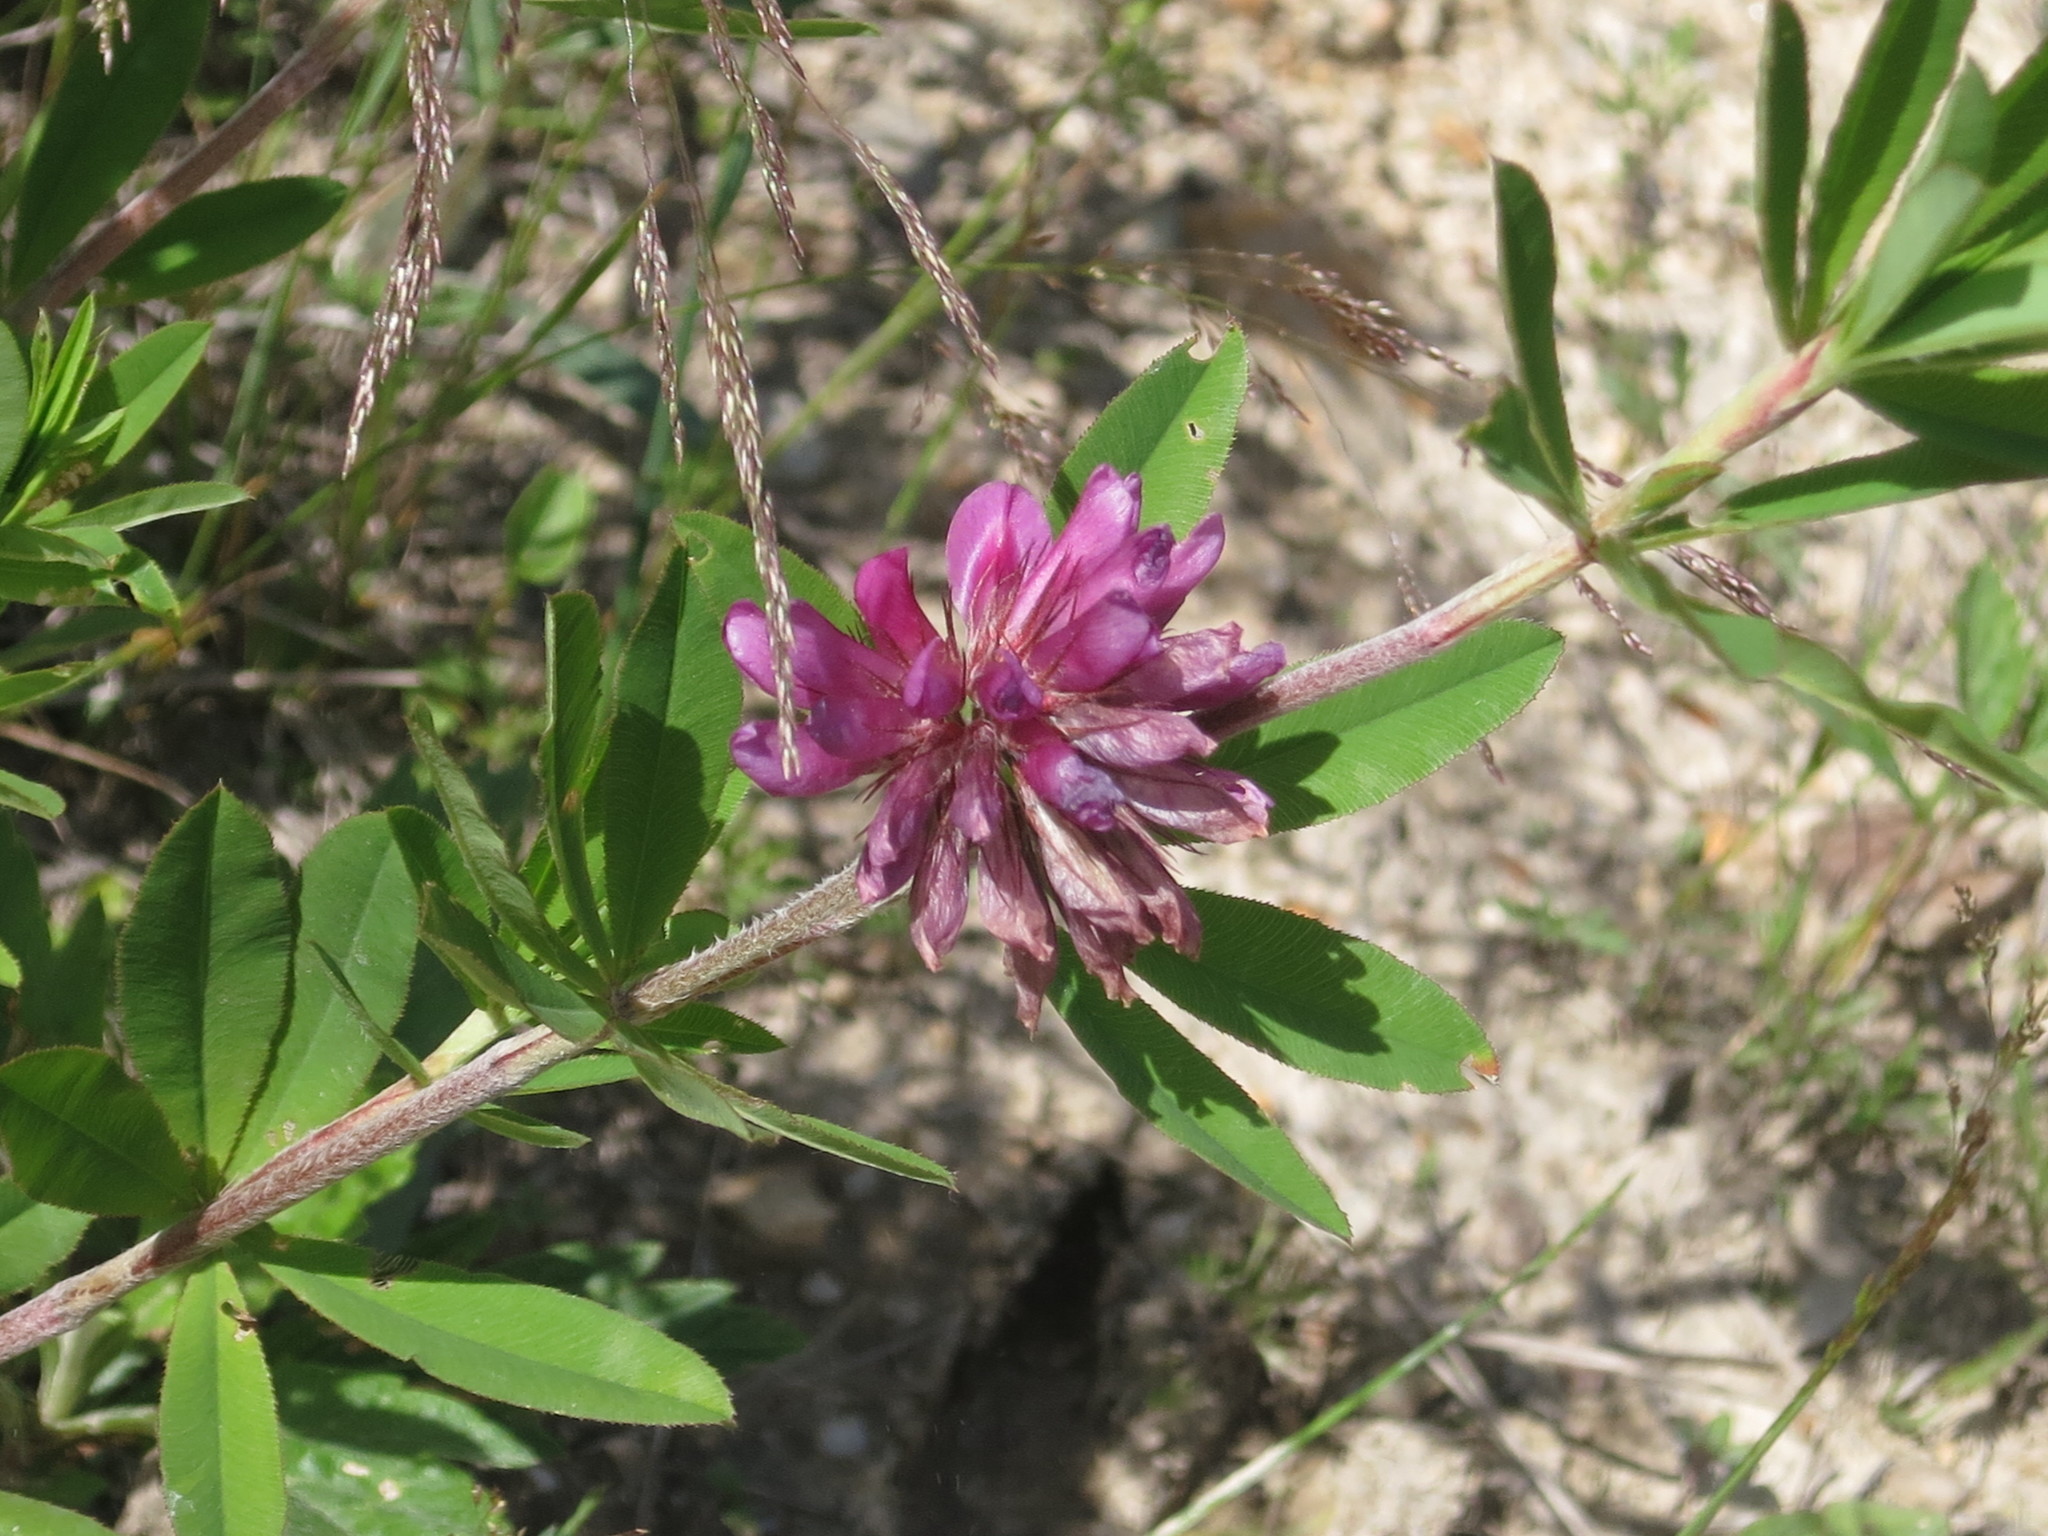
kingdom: Plantae
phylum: Tracheophyta
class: Magnoliopsida
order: Fabales
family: Fabaceae
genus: Trifolium
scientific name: Trifolium lupinaster
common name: Lupine clover
